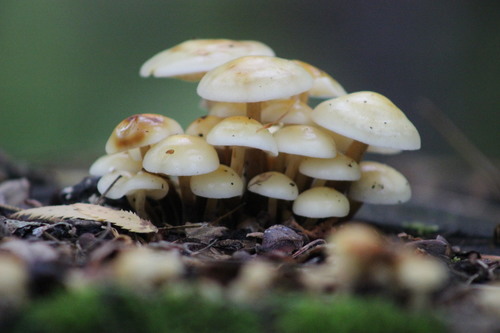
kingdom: Fungi
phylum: Basidiomycota
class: Agaricomycetes
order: Agaricales
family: Physalacriaceae
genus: Flammulina
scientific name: Flammulina velutipes
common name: Velvet shank
